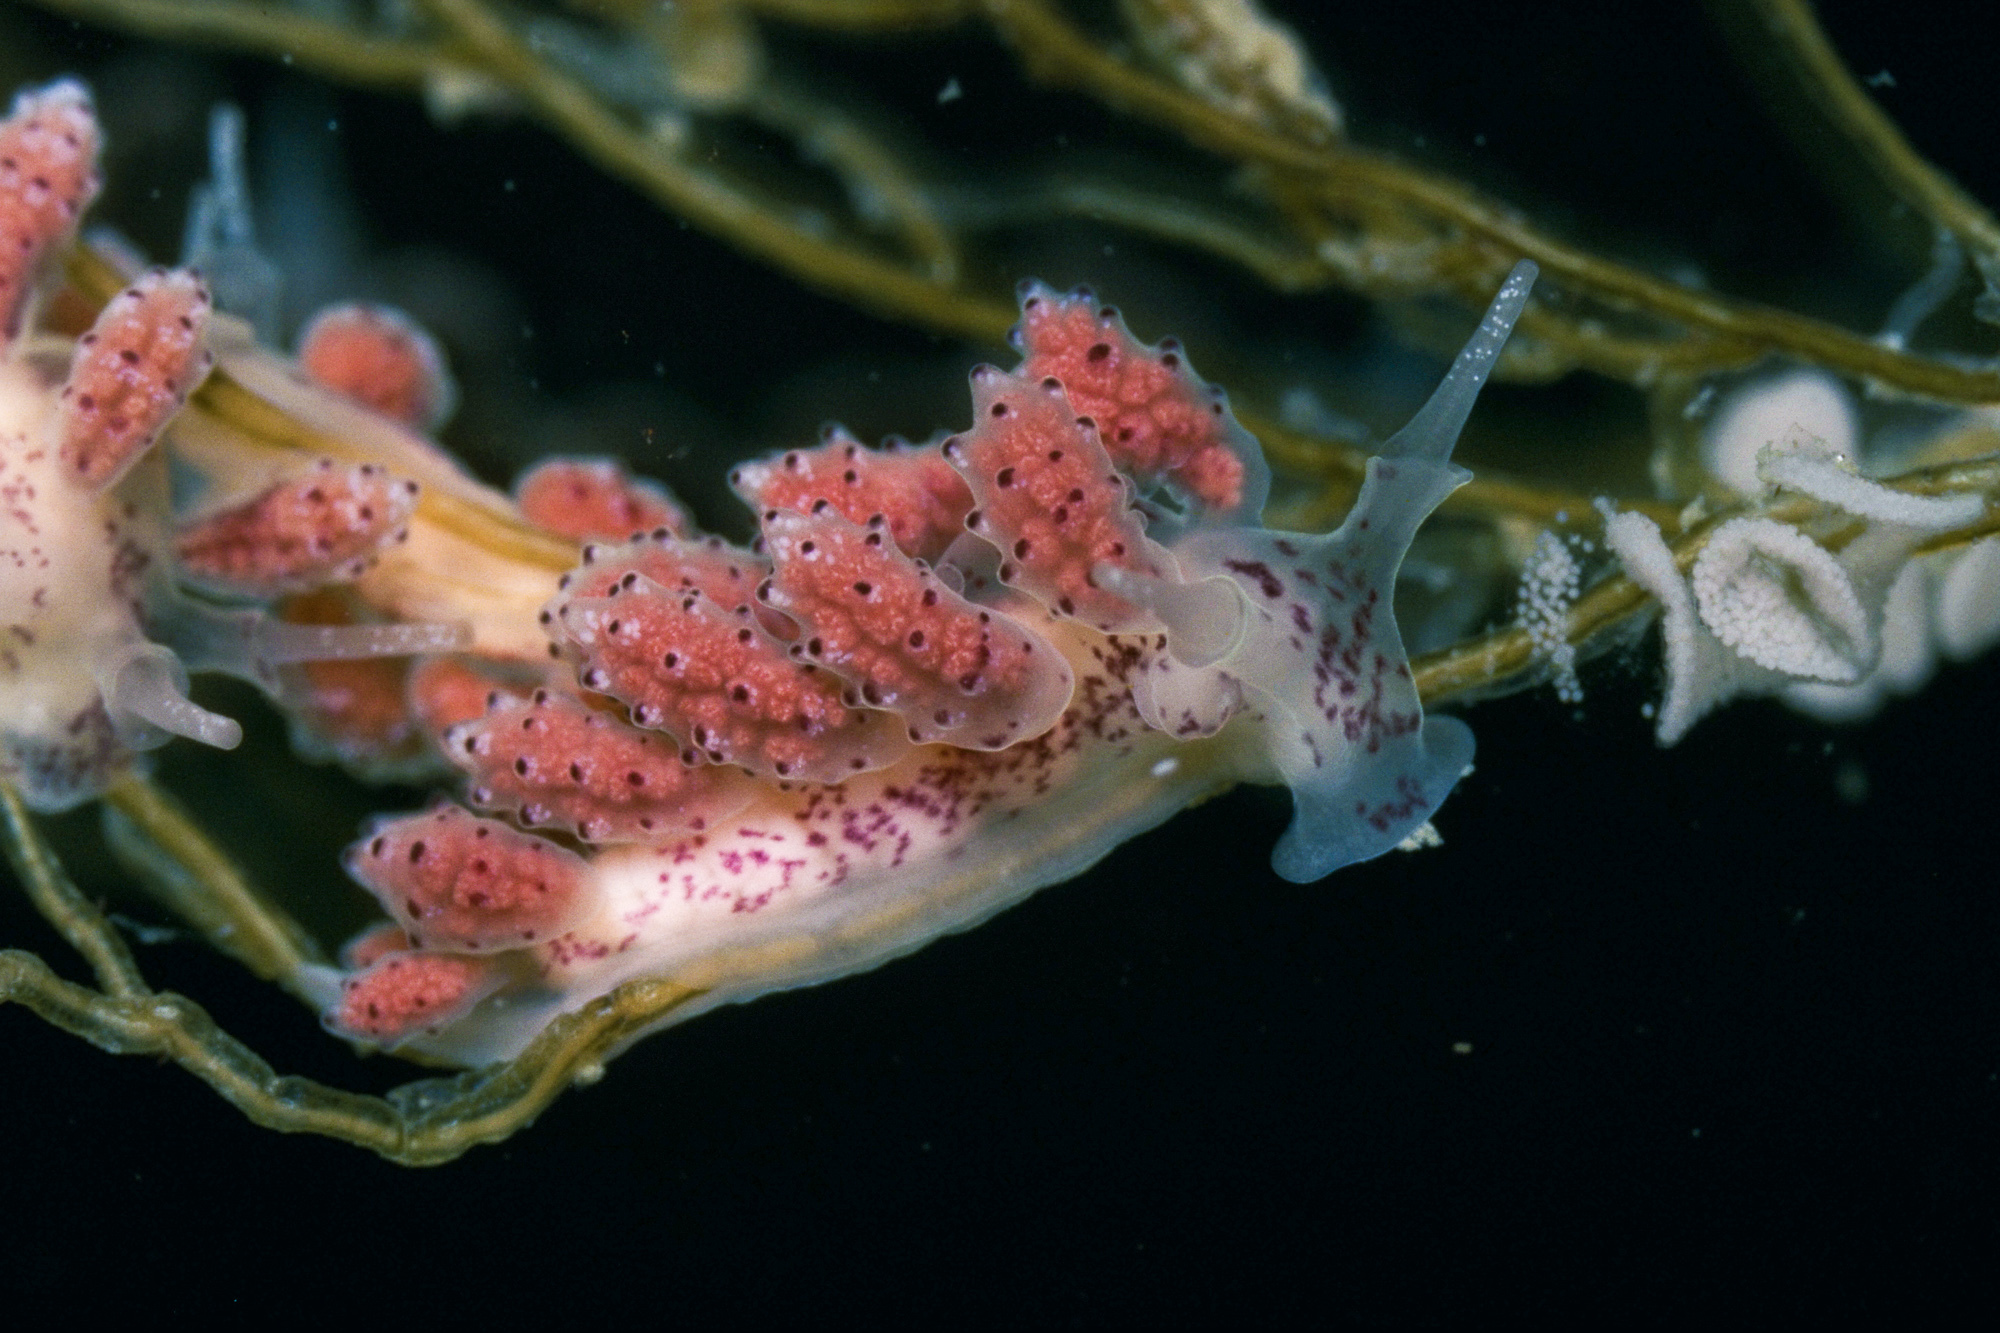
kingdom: Animalia
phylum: Mollusca
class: Gastropoda
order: Nudibranchia
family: Dotidae
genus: Doto
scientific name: Doto sarsiae
